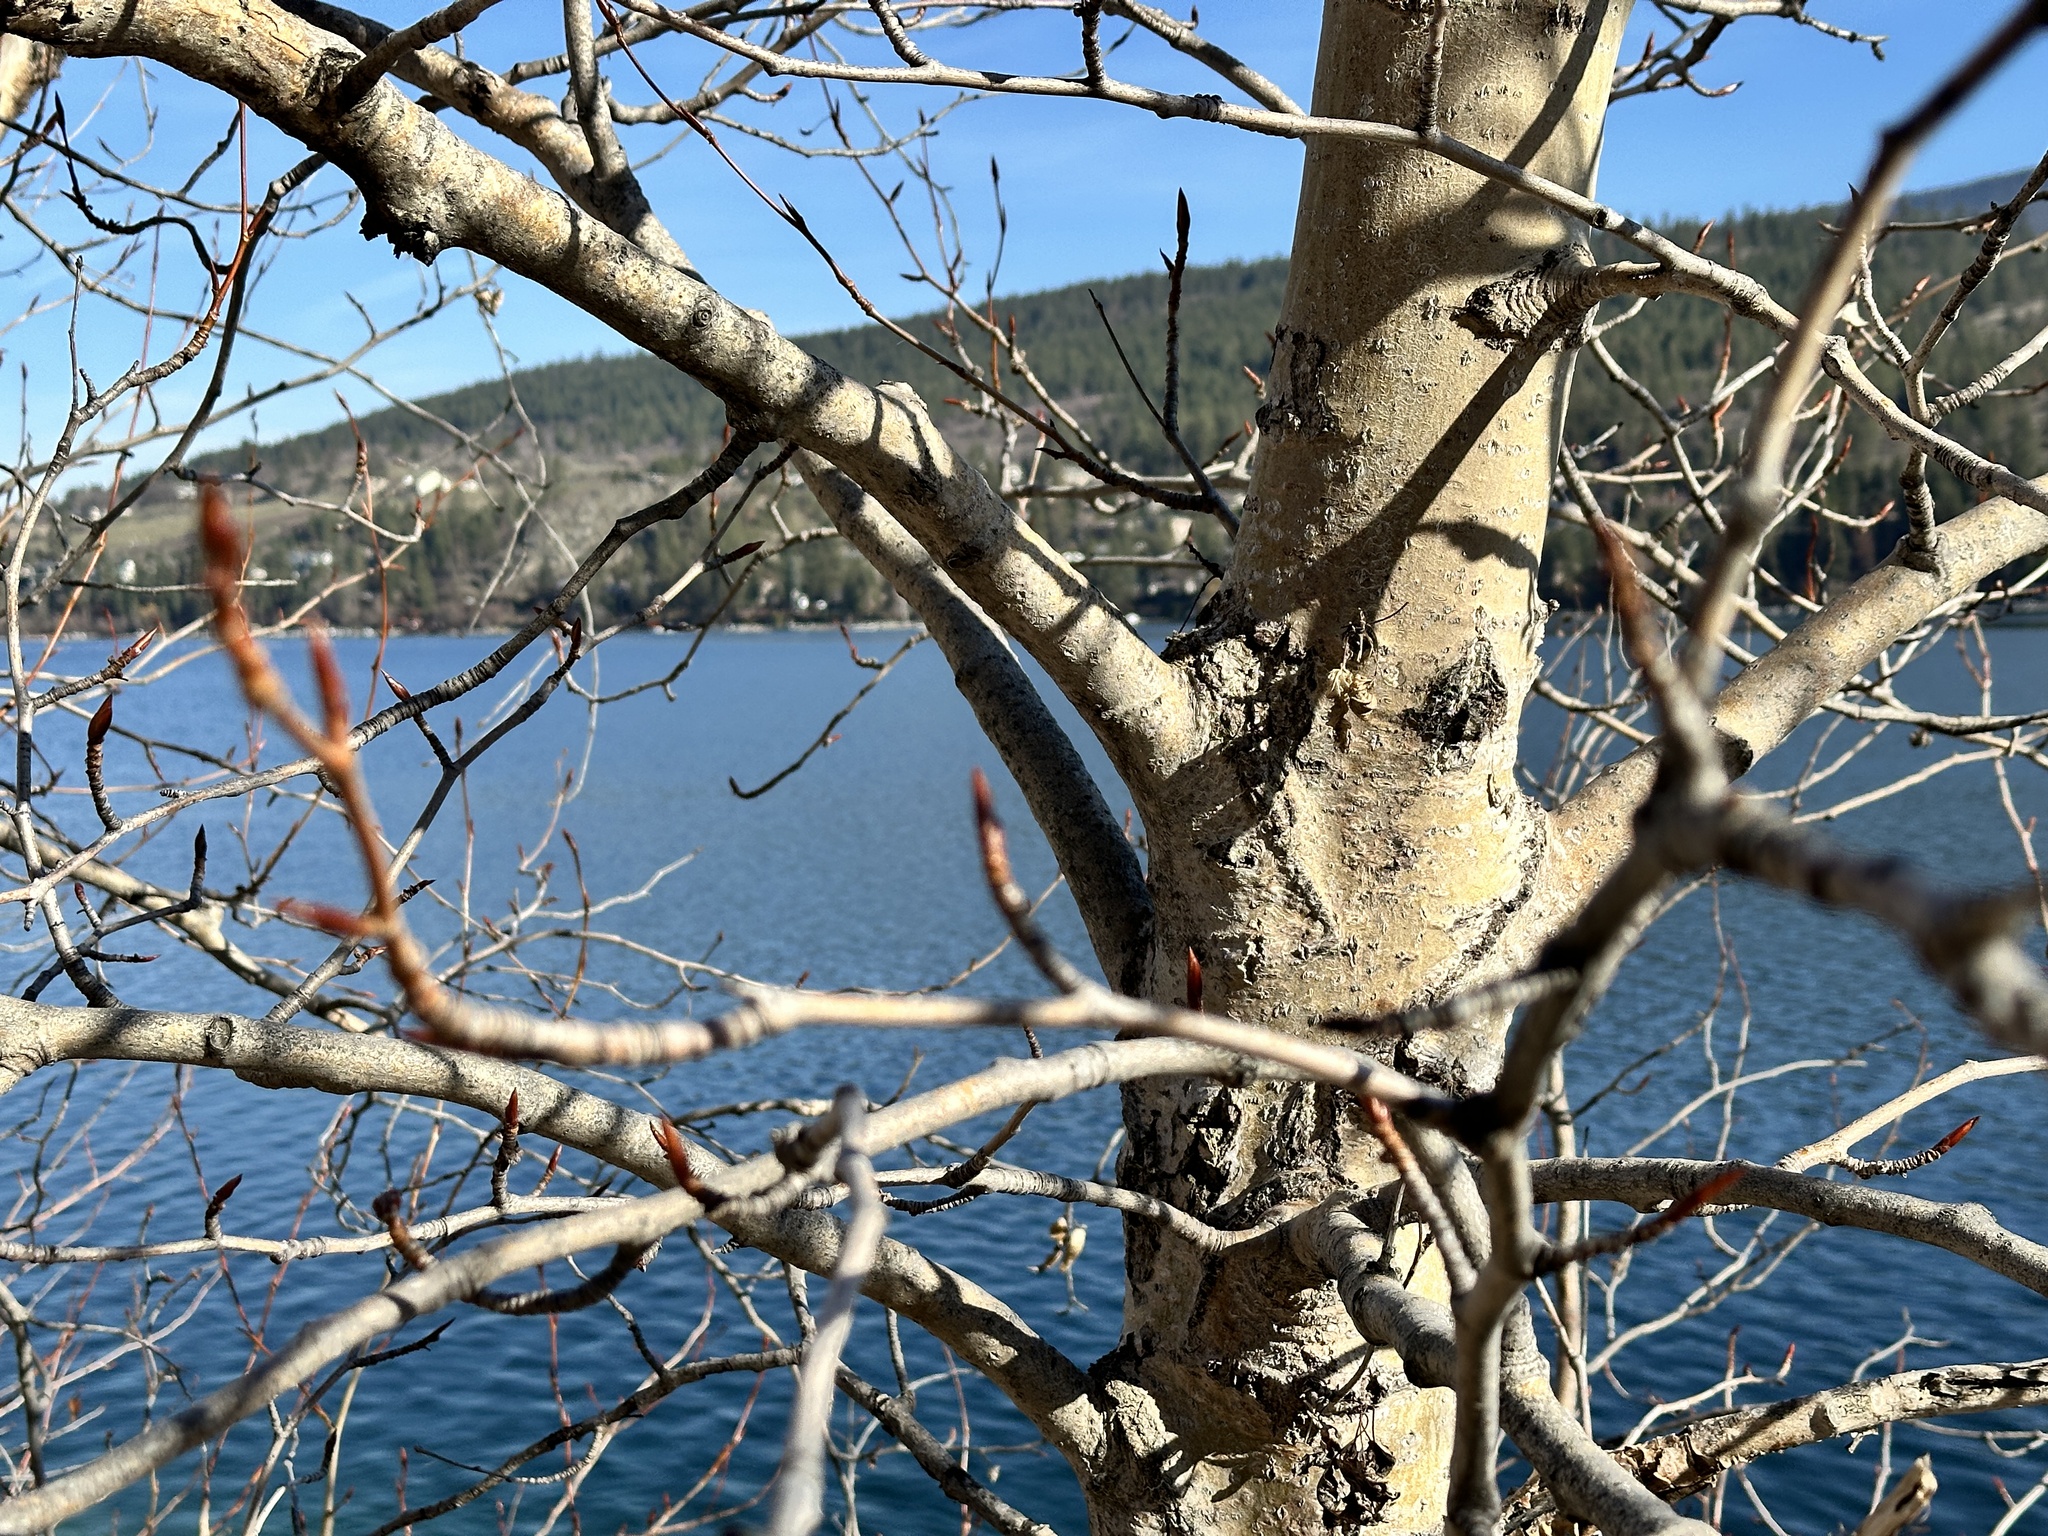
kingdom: Plantae
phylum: Tracheophyta
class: Magnoliopsida
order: Malpighiales
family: Salicaceae
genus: Populus
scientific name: Populus trichocarpa
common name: Black cottonwood
